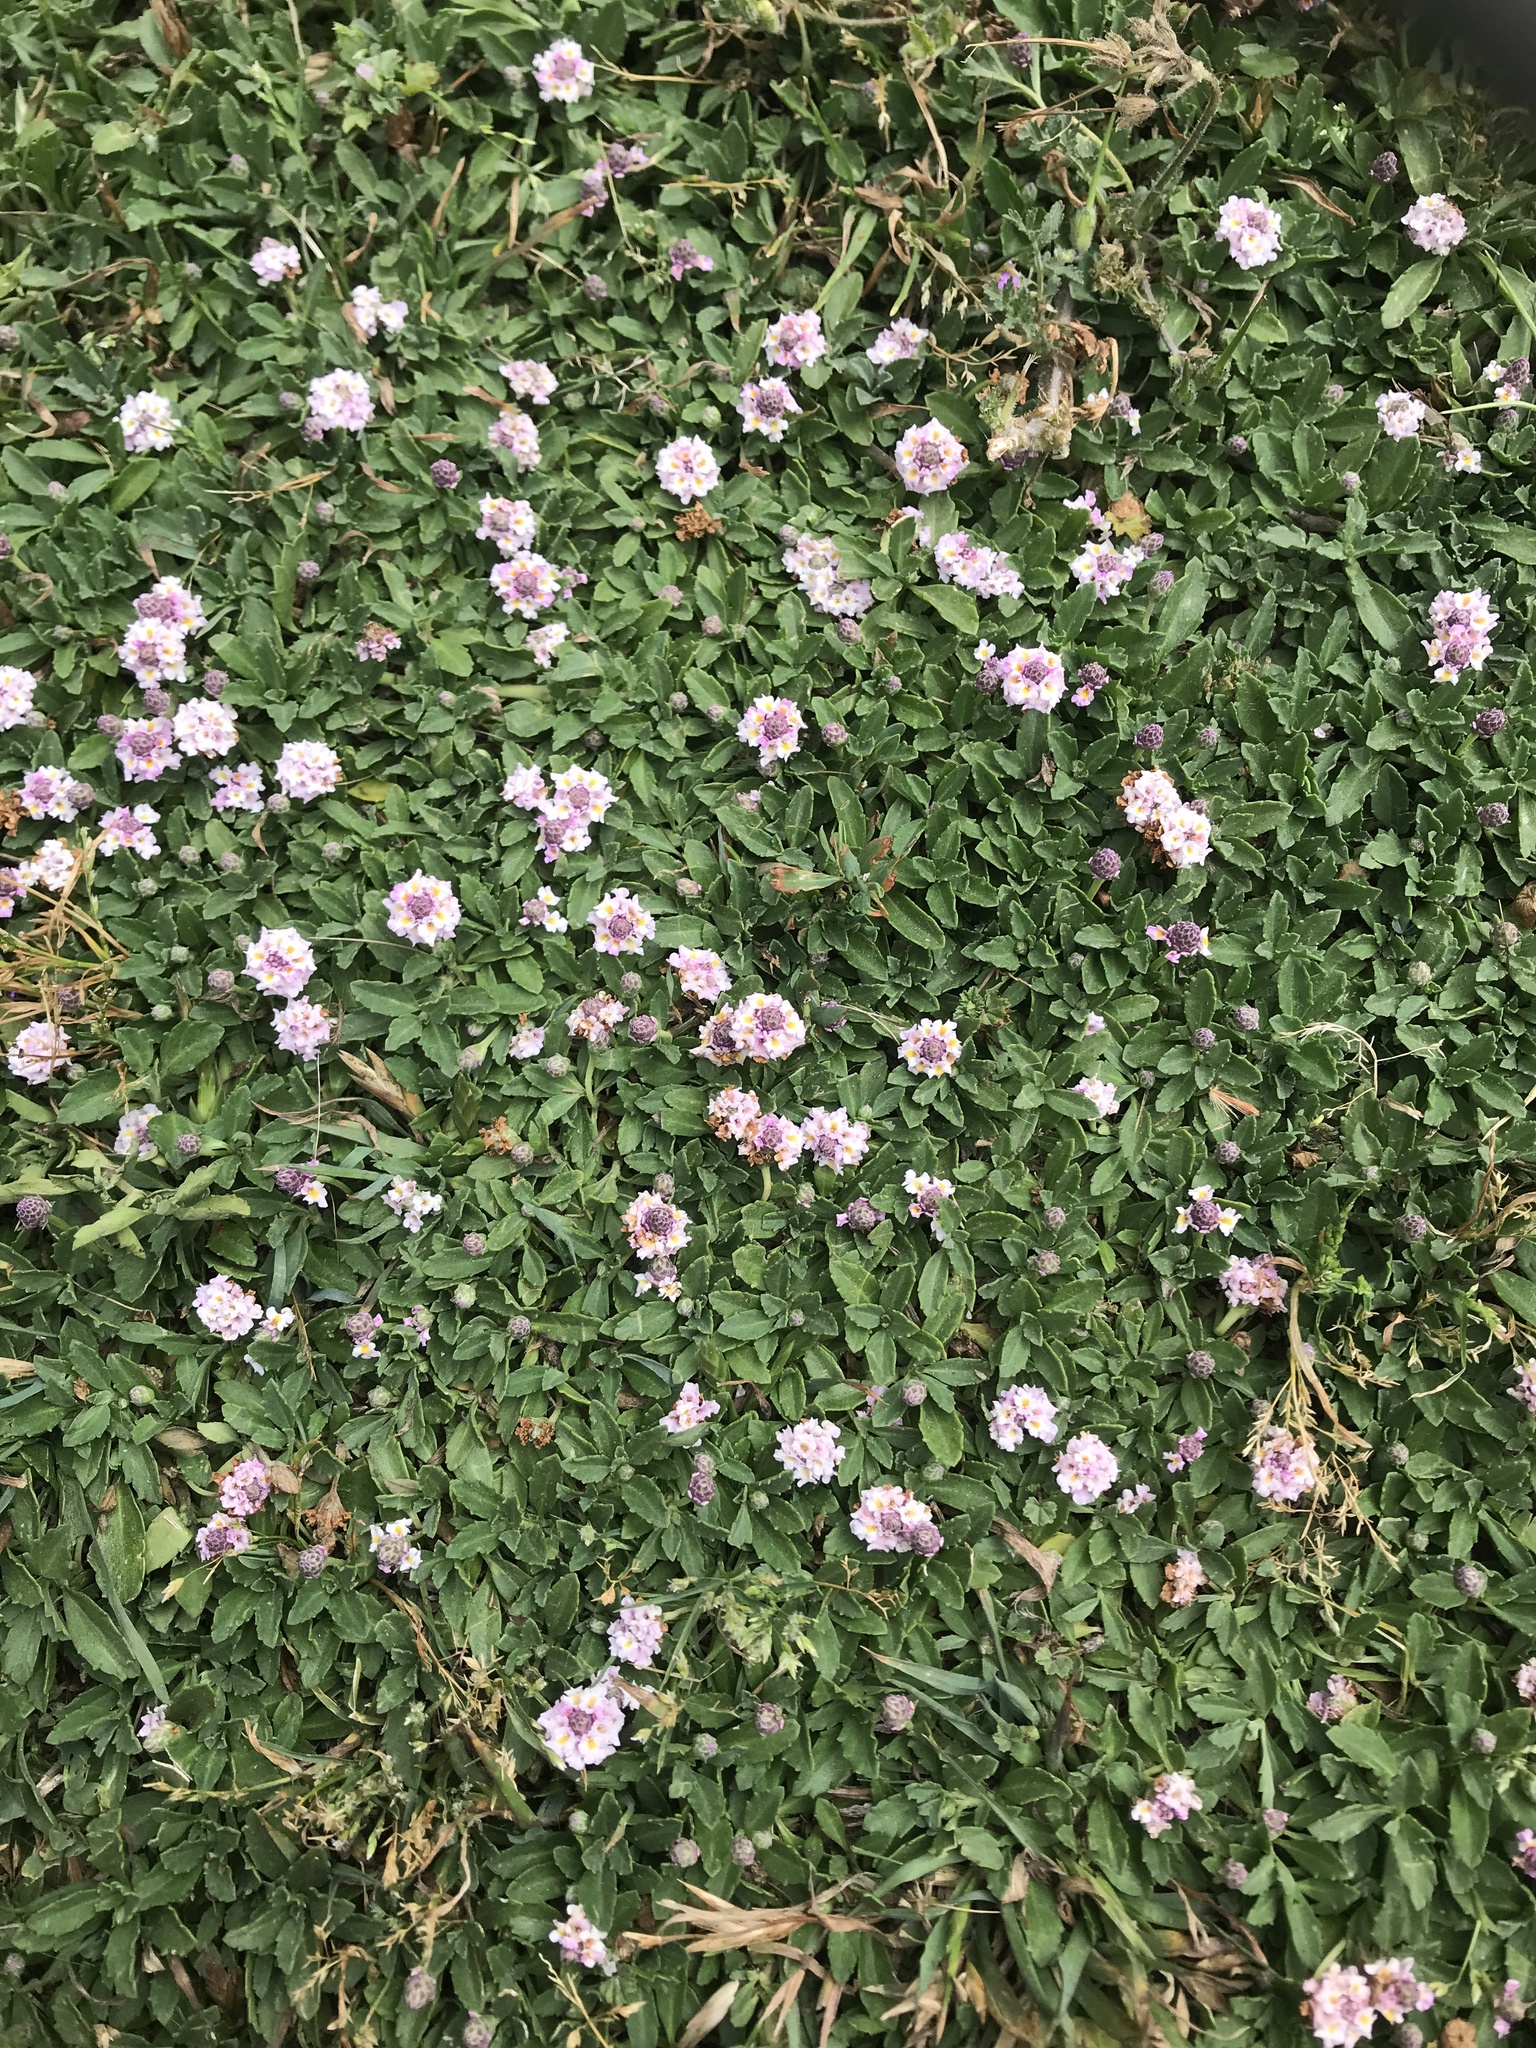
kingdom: Plantae
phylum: Tracheophyta
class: Magnoliopsida
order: Lamiales
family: Verbenaceae
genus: Phyla
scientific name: Phyla nodiflora
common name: Frogfruit
